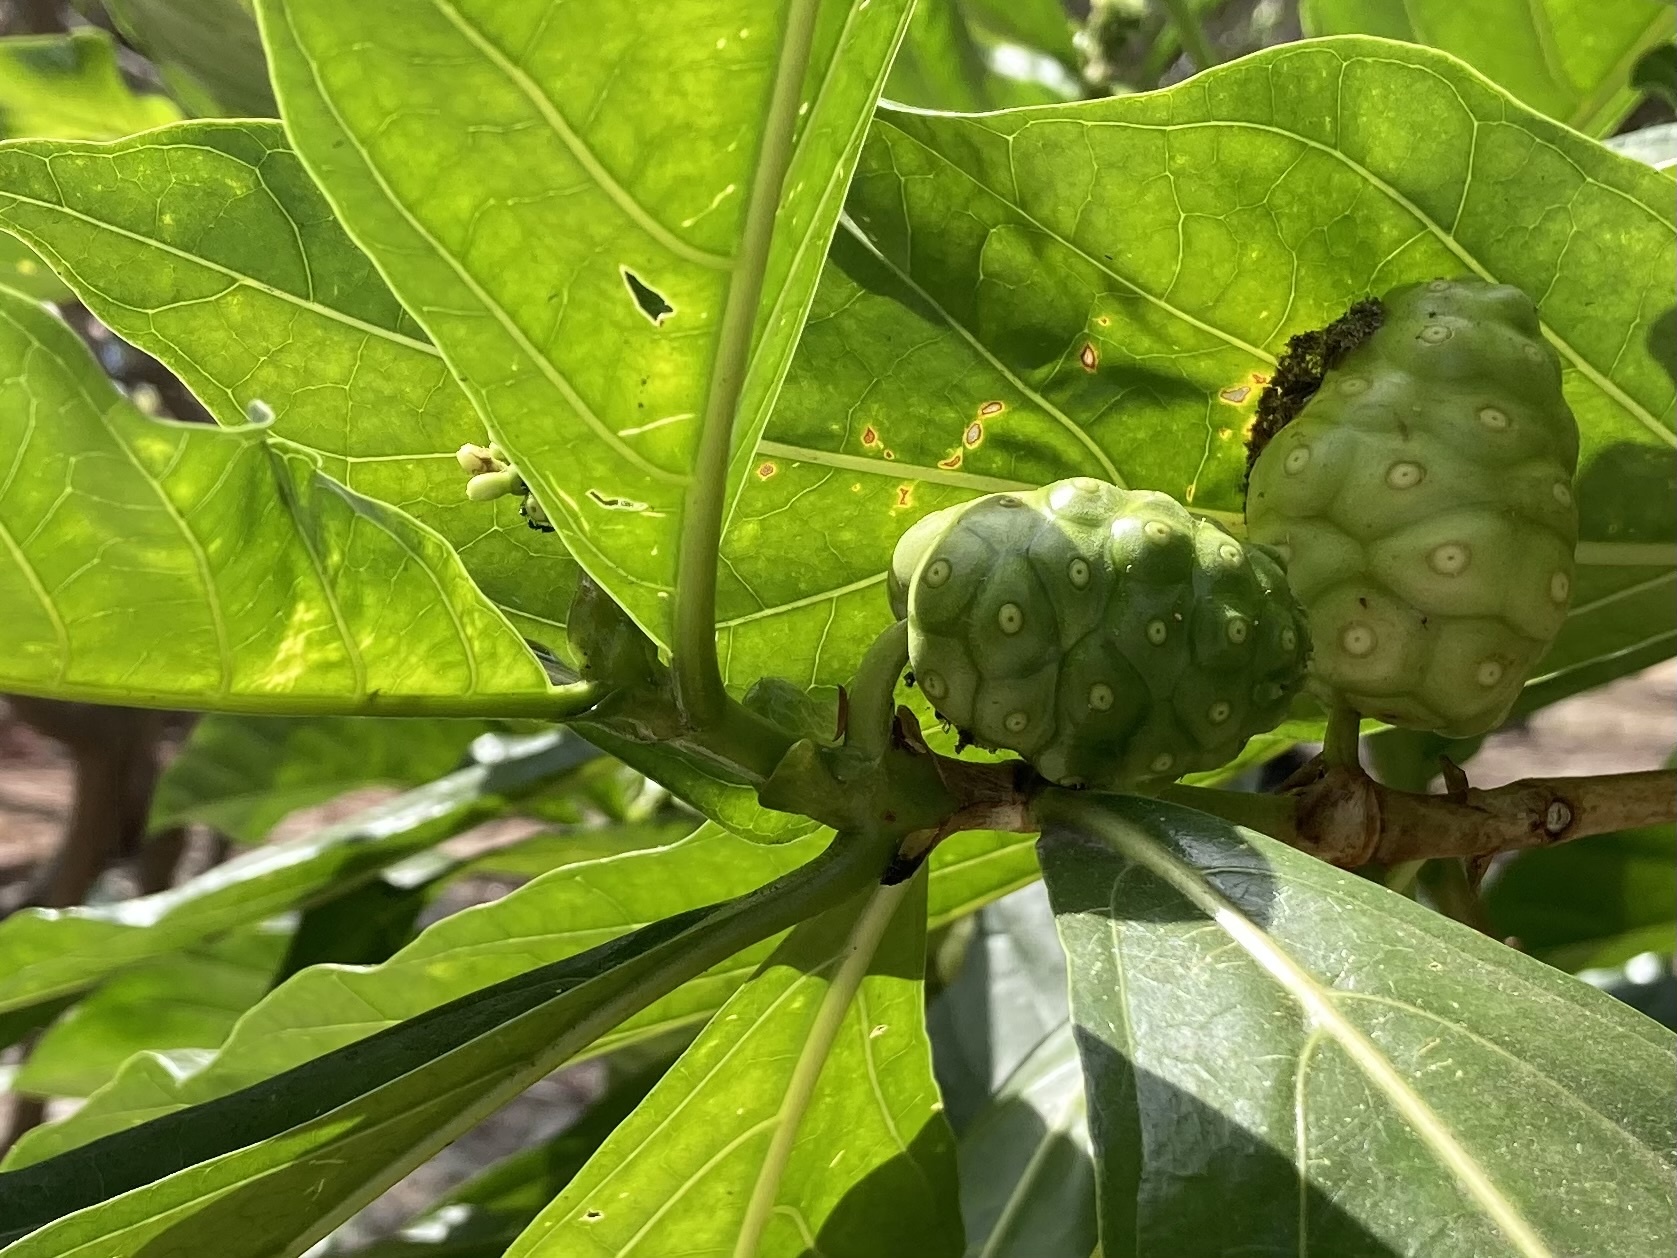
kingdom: Plantae
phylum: Tracheophyta
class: Magnoliopsida
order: Gentianales
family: Rubiaceae
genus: Morinda
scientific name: Morinda citrifolia
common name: Indian-mulberry
